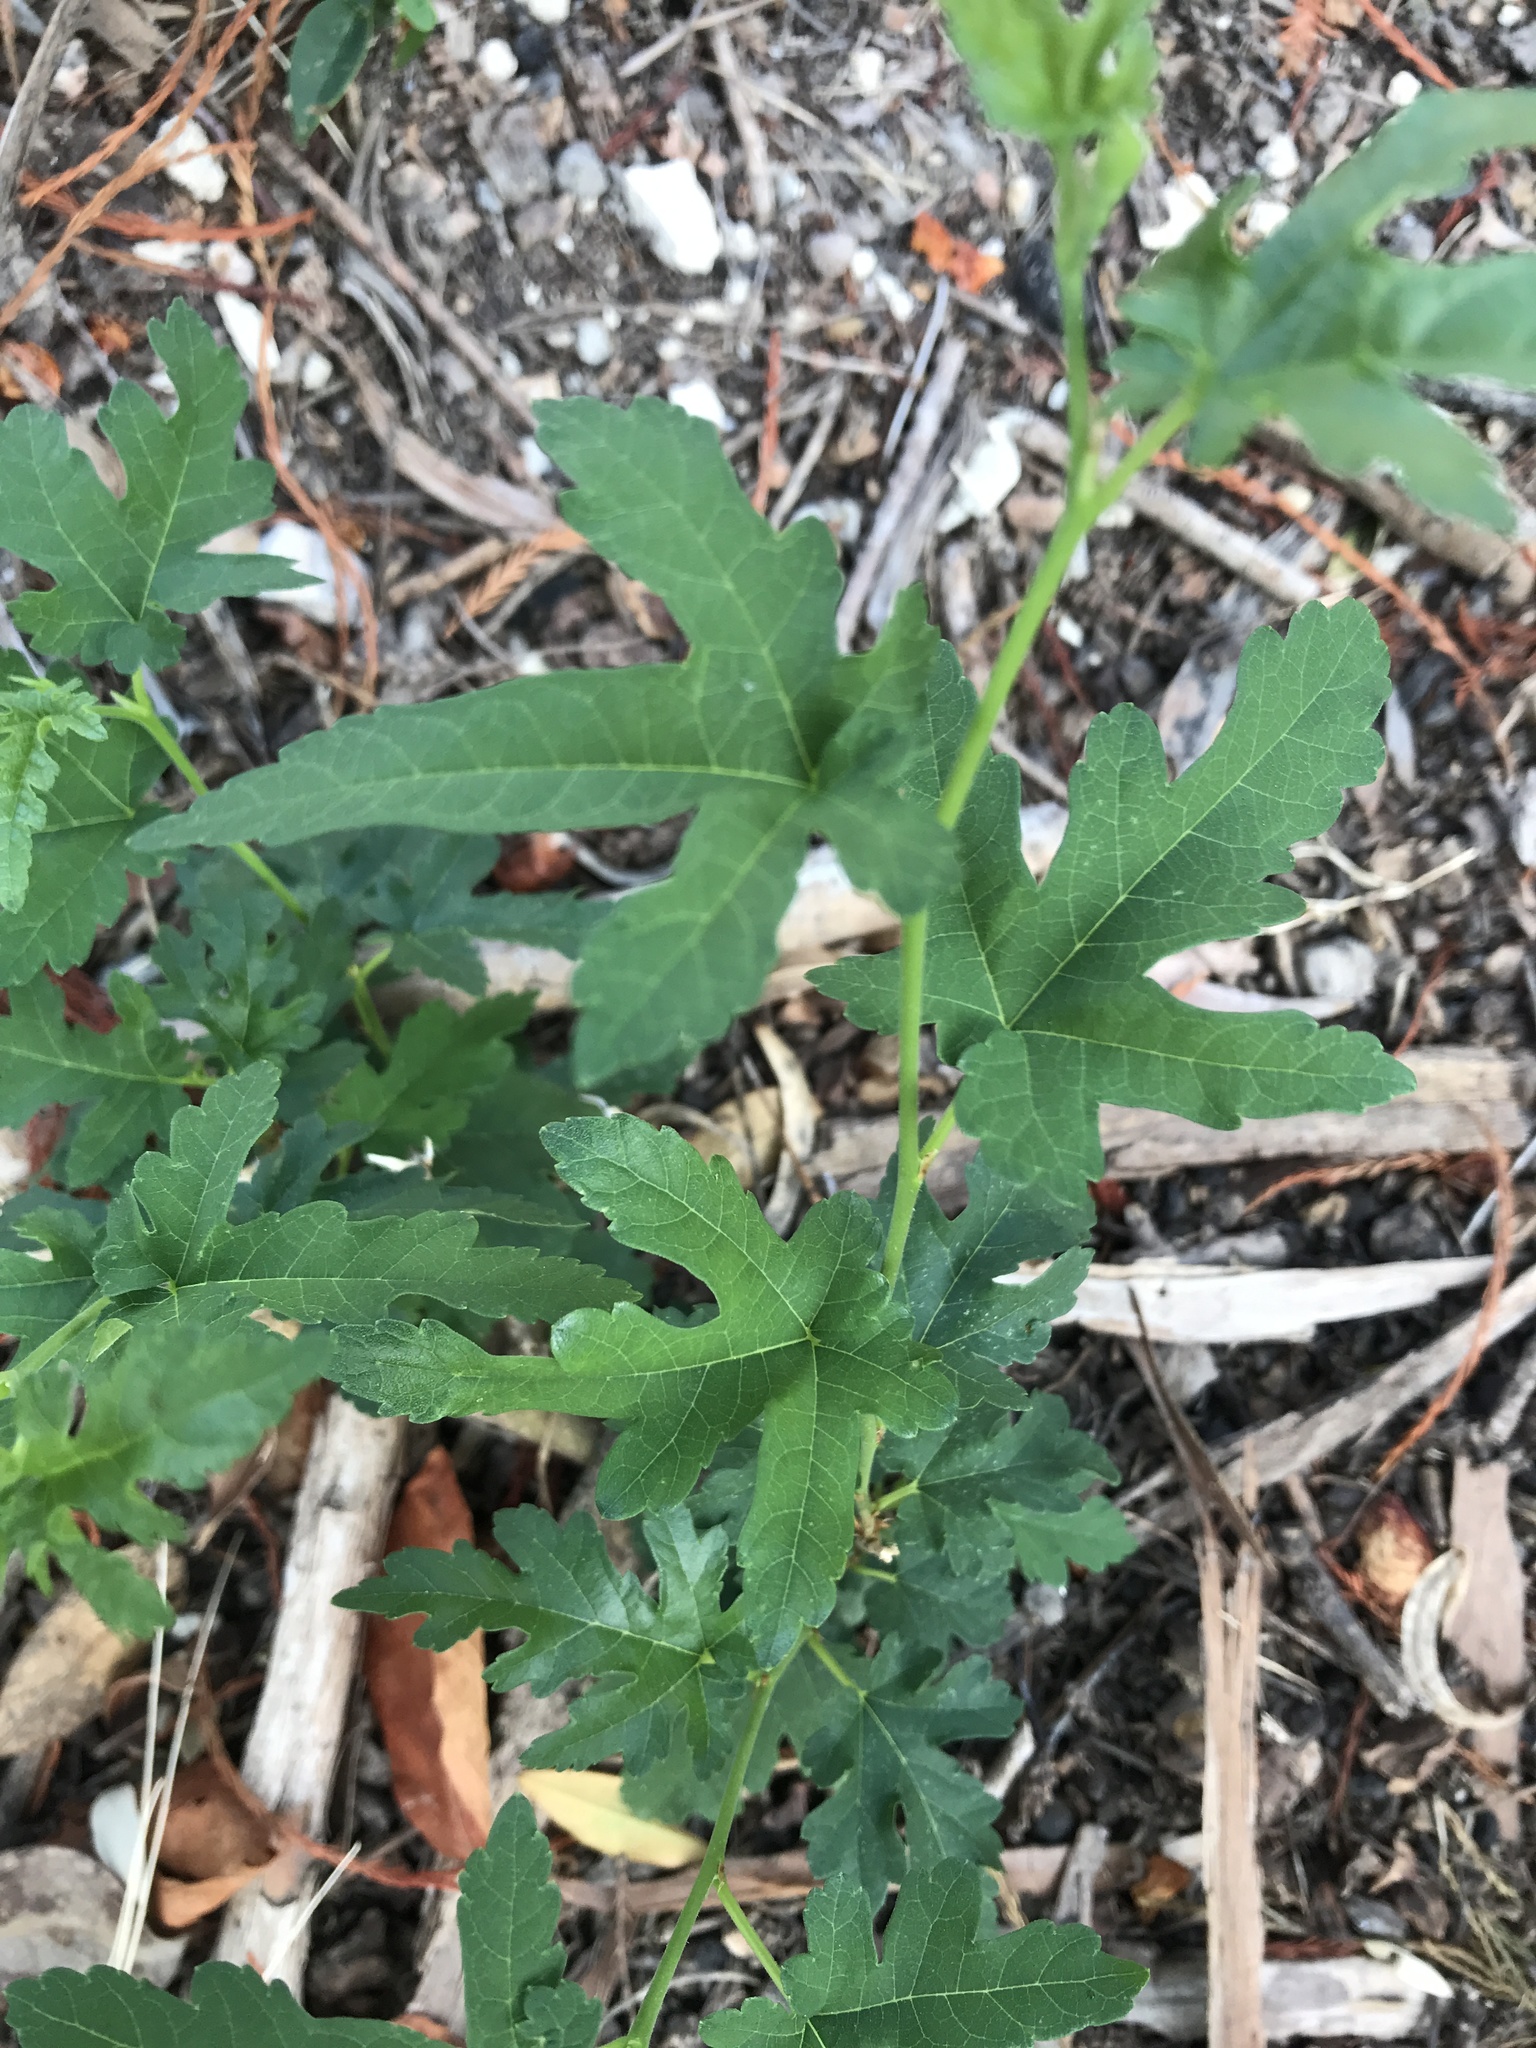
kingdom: Plantae
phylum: Tracheophyta
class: Magnoliopsida
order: Rosales
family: Moraceae
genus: Morus
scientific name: Morus indica
